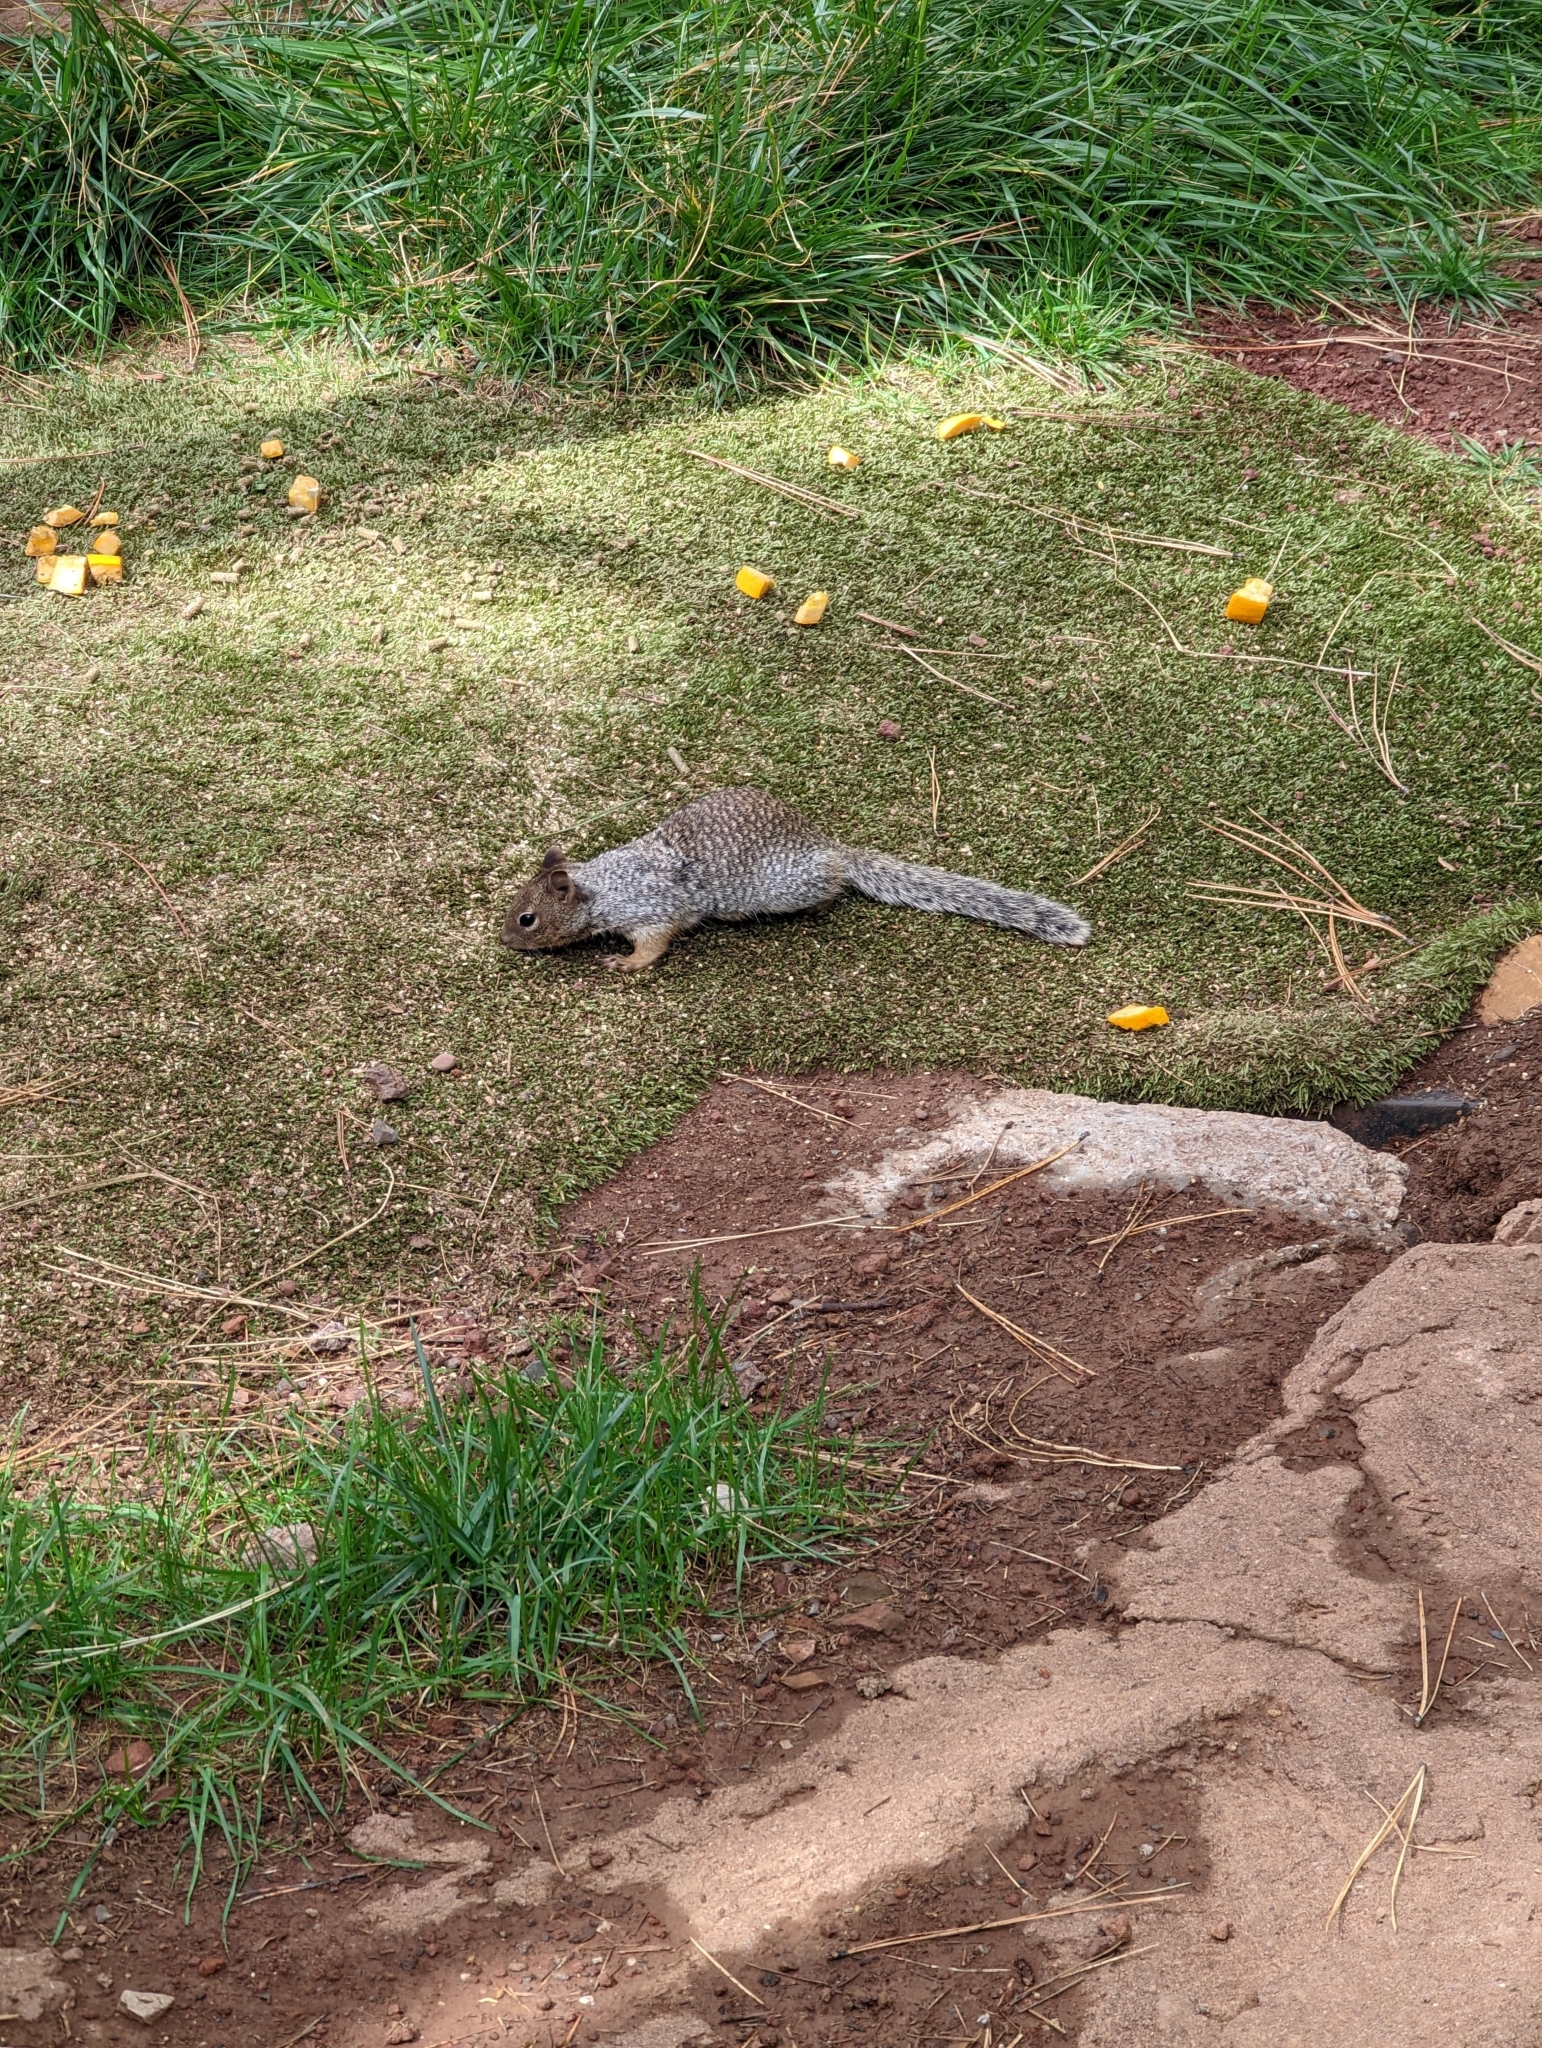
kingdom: Animalia
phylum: Chordata
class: Mammalia
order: Rodentia
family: Sciuridae
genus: Otospermophilus
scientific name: Otospermophilus variegatus
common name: Rock squirrel
